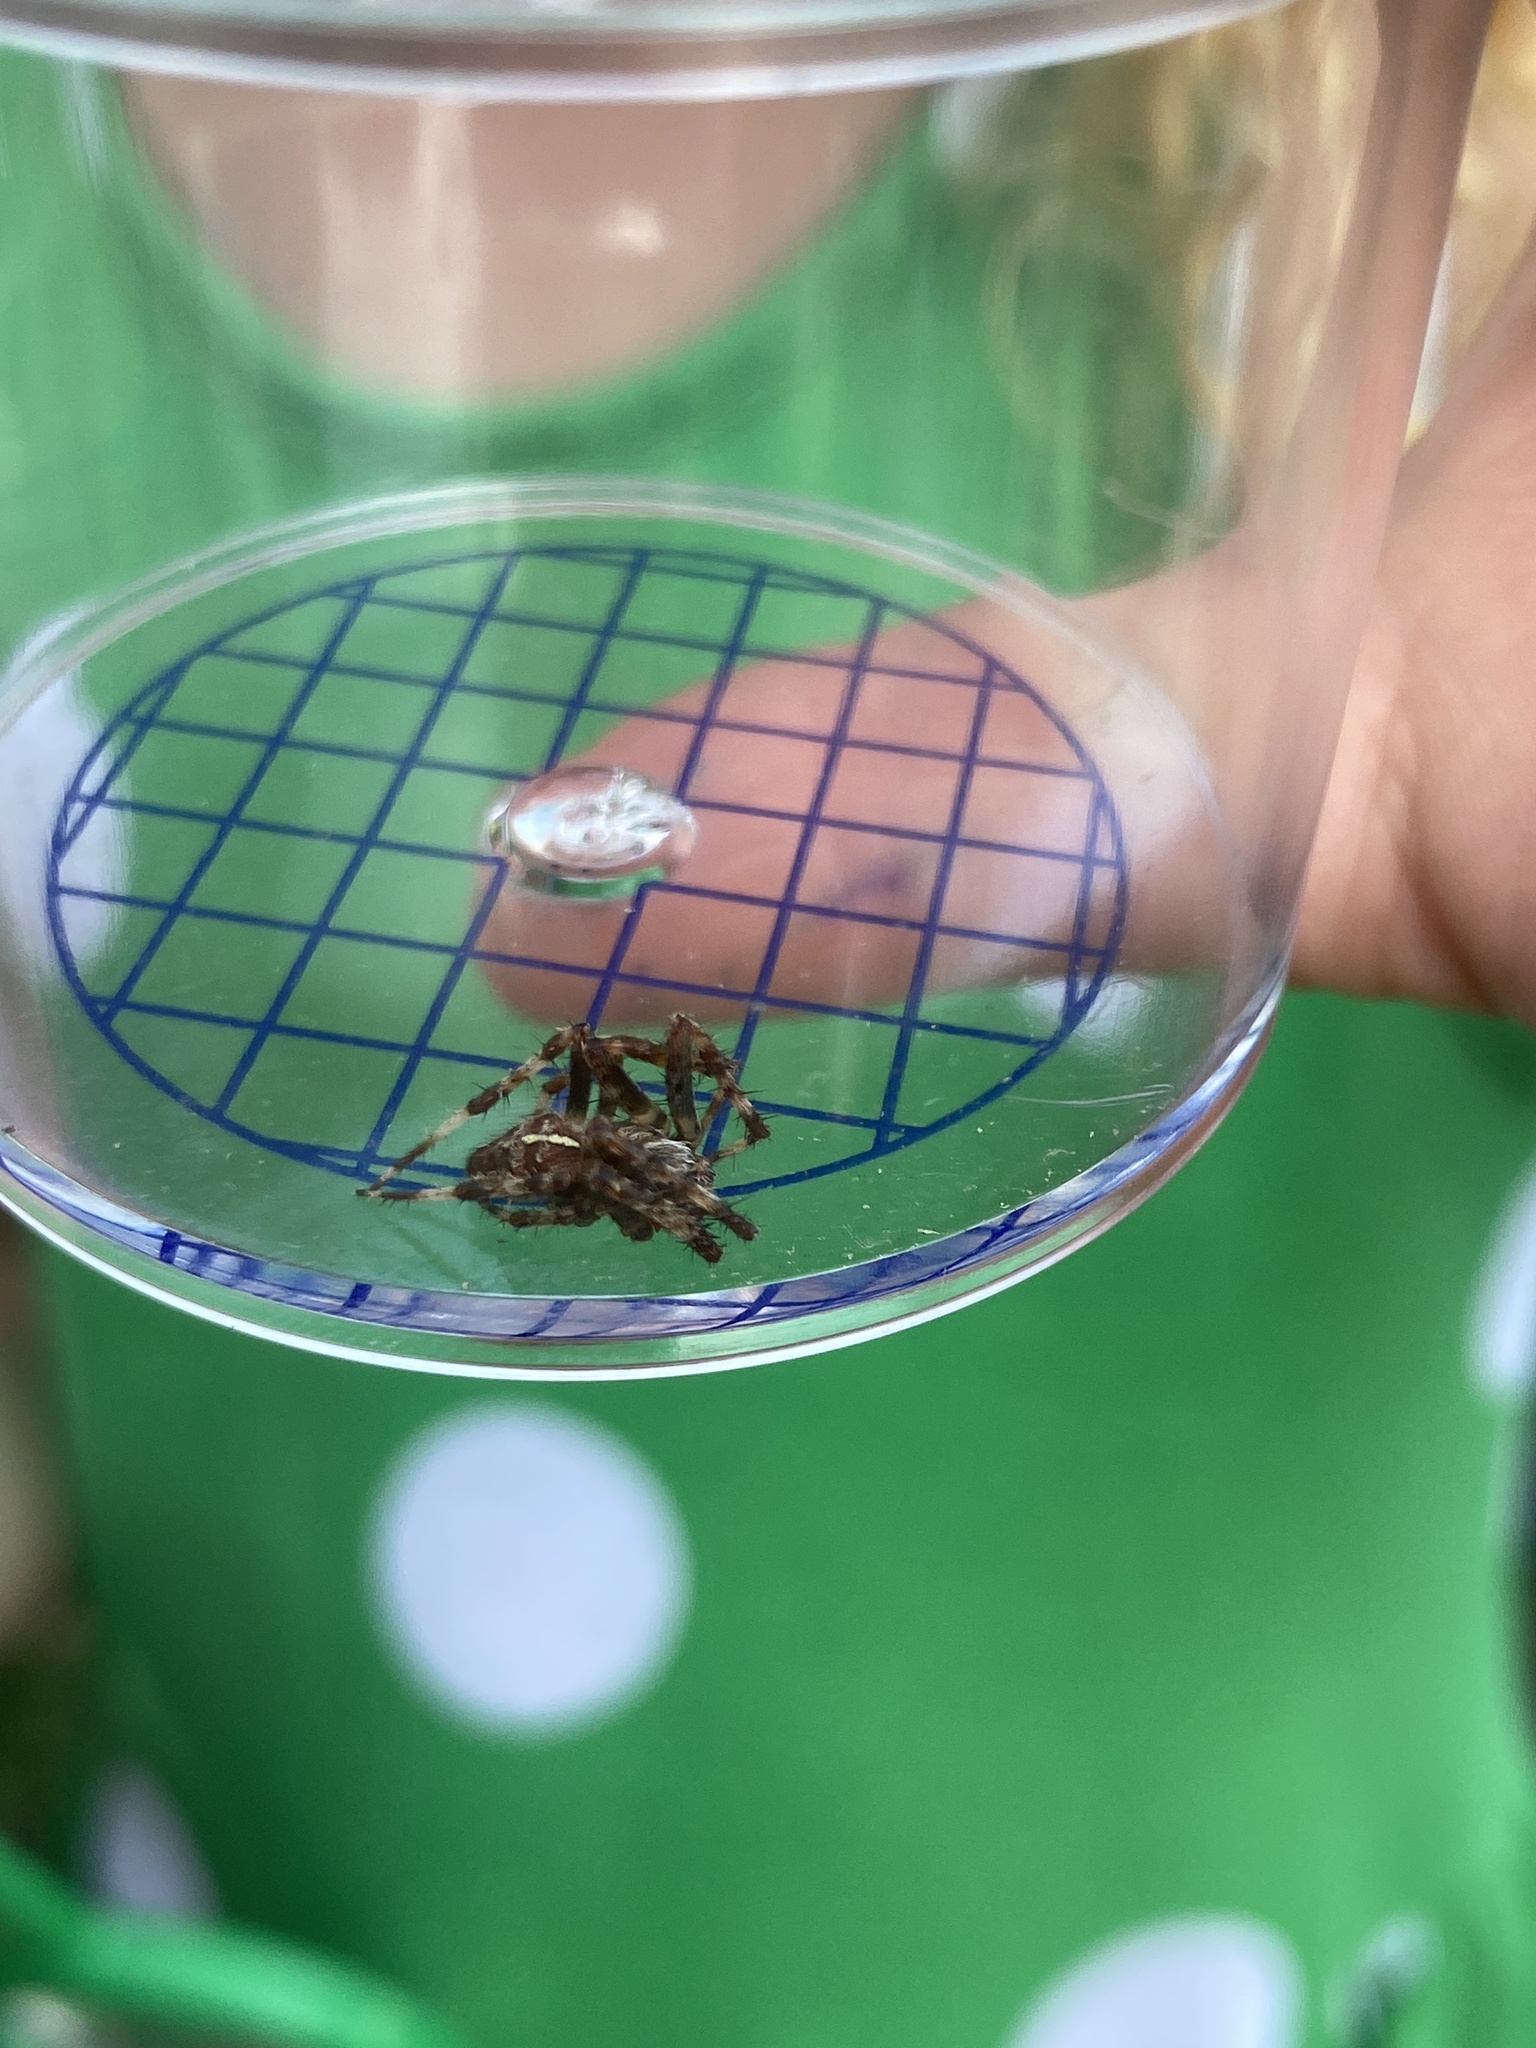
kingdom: Animalia
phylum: Arthropoda
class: Arachnida
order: Araneae
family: Araneidae
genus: Araneus
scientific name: Araneus diadematus
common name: Cross orbweaver
